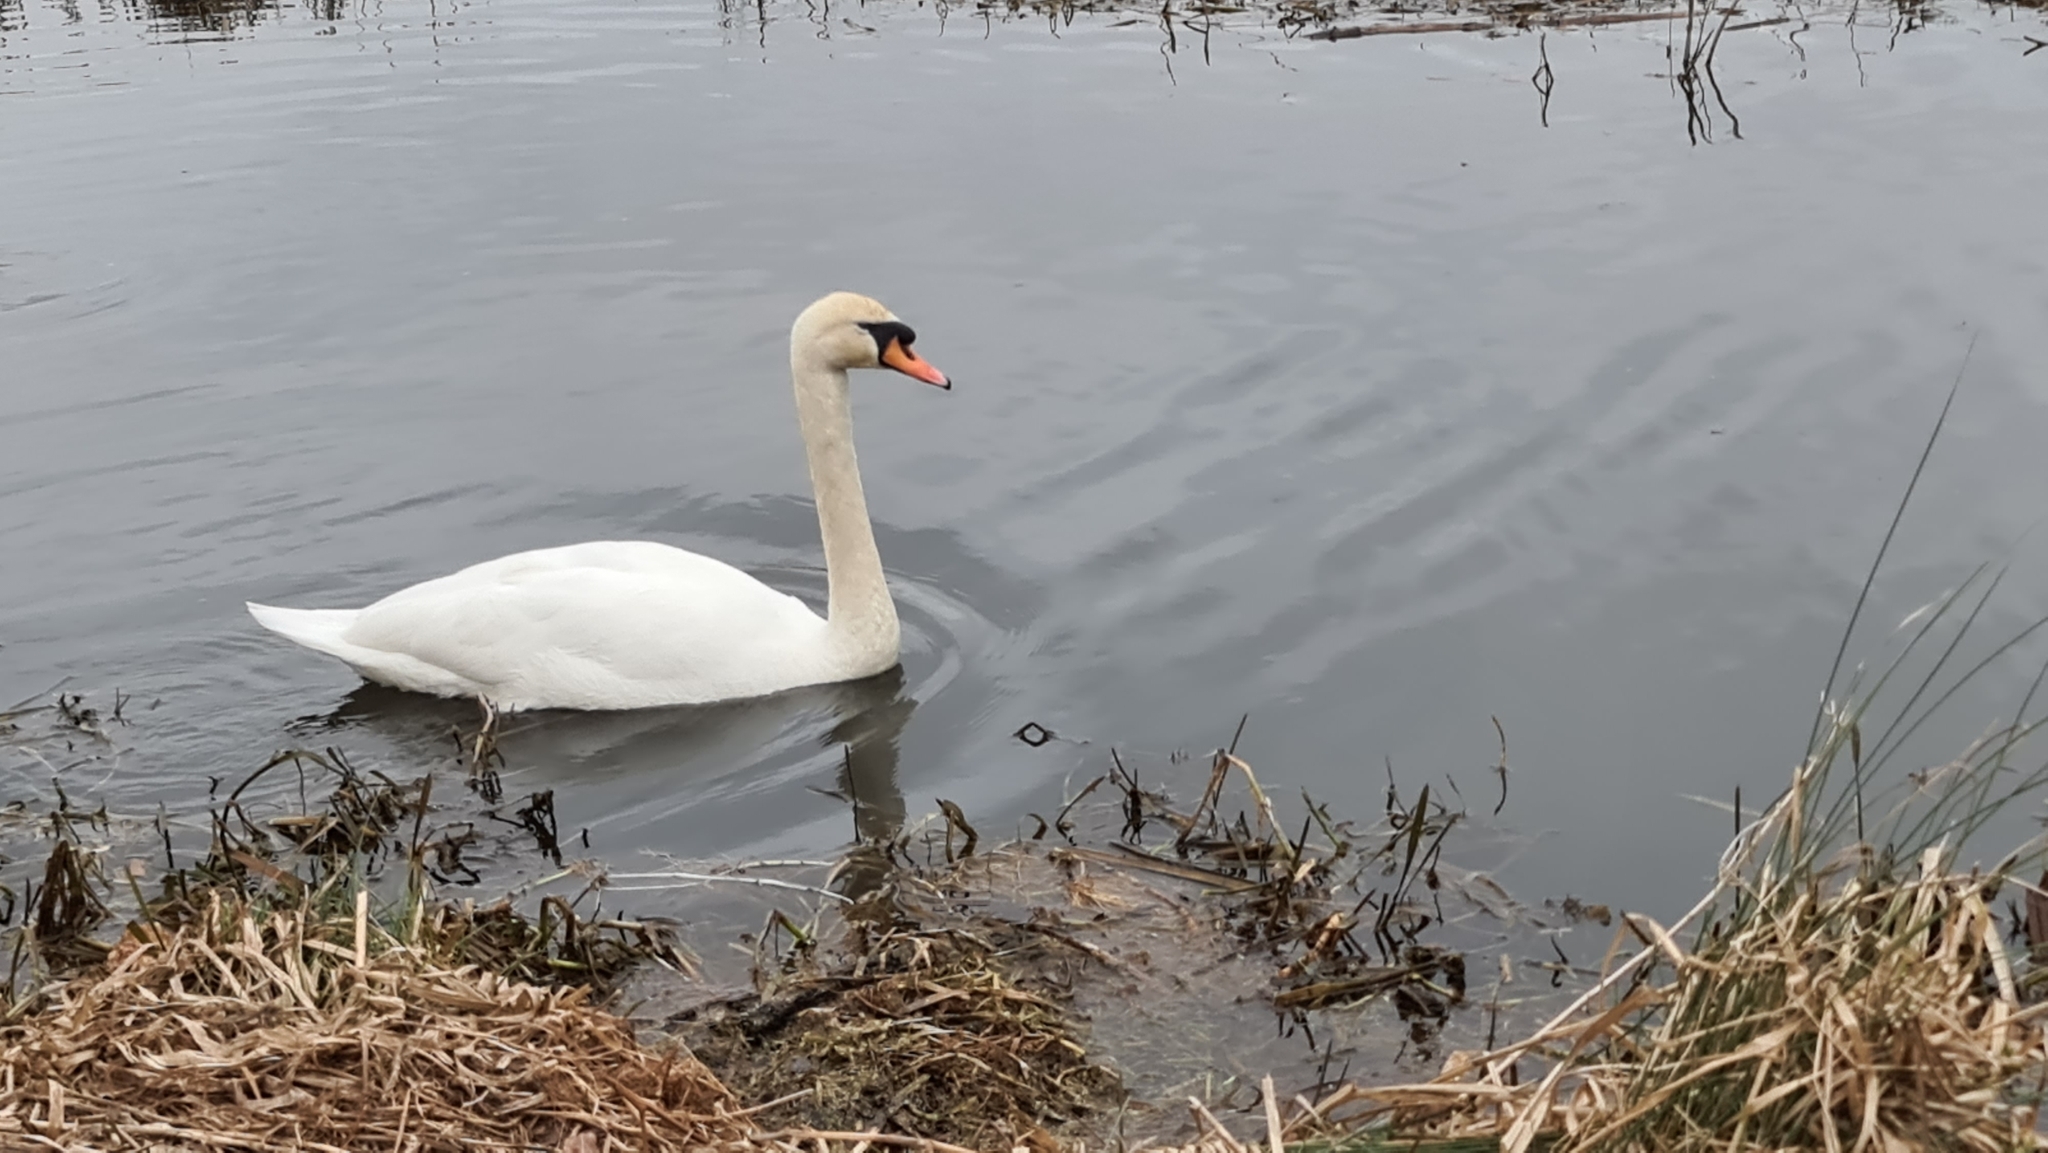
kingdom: Animalia
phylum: Chordata
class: Aves
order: Anseriformes
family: Anatidae
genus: Cygnus
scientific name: Cygnus olor
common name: Mute swan
